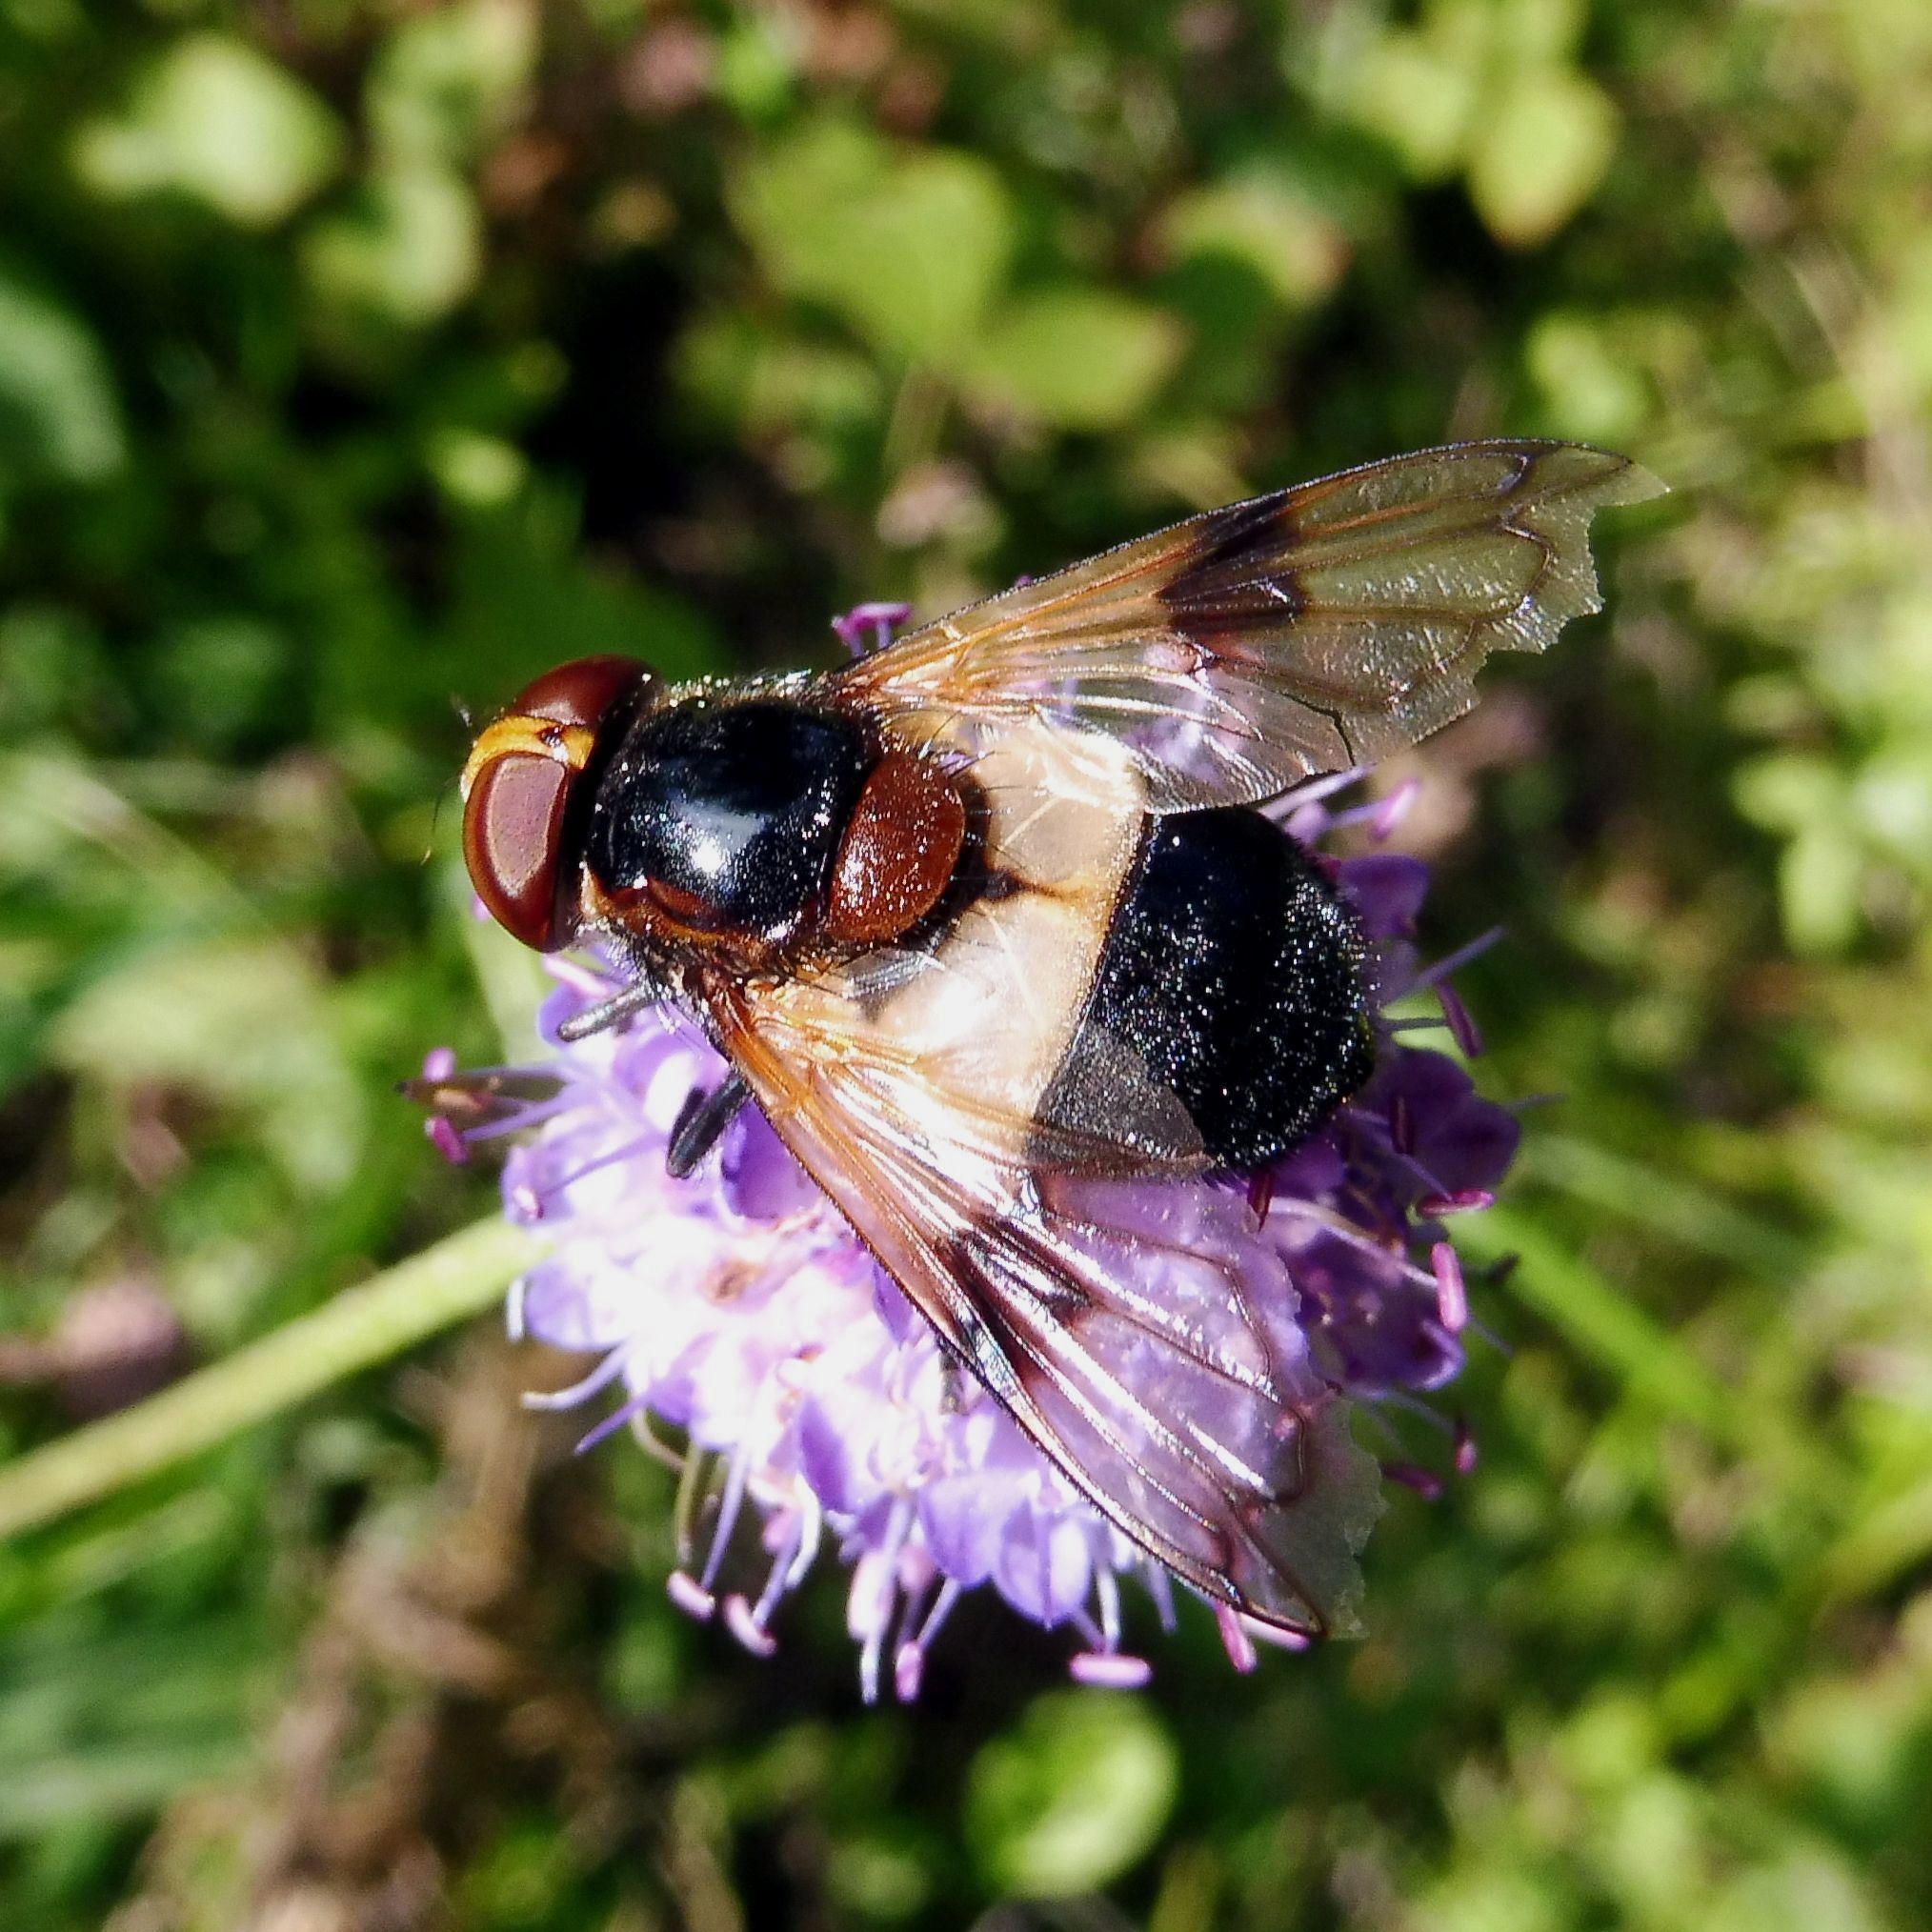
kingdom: Animalia
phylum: Arthropoda
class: Insecta
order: Diptera
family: Syrphidae
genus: Volucella
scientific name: Volucella pellucens
